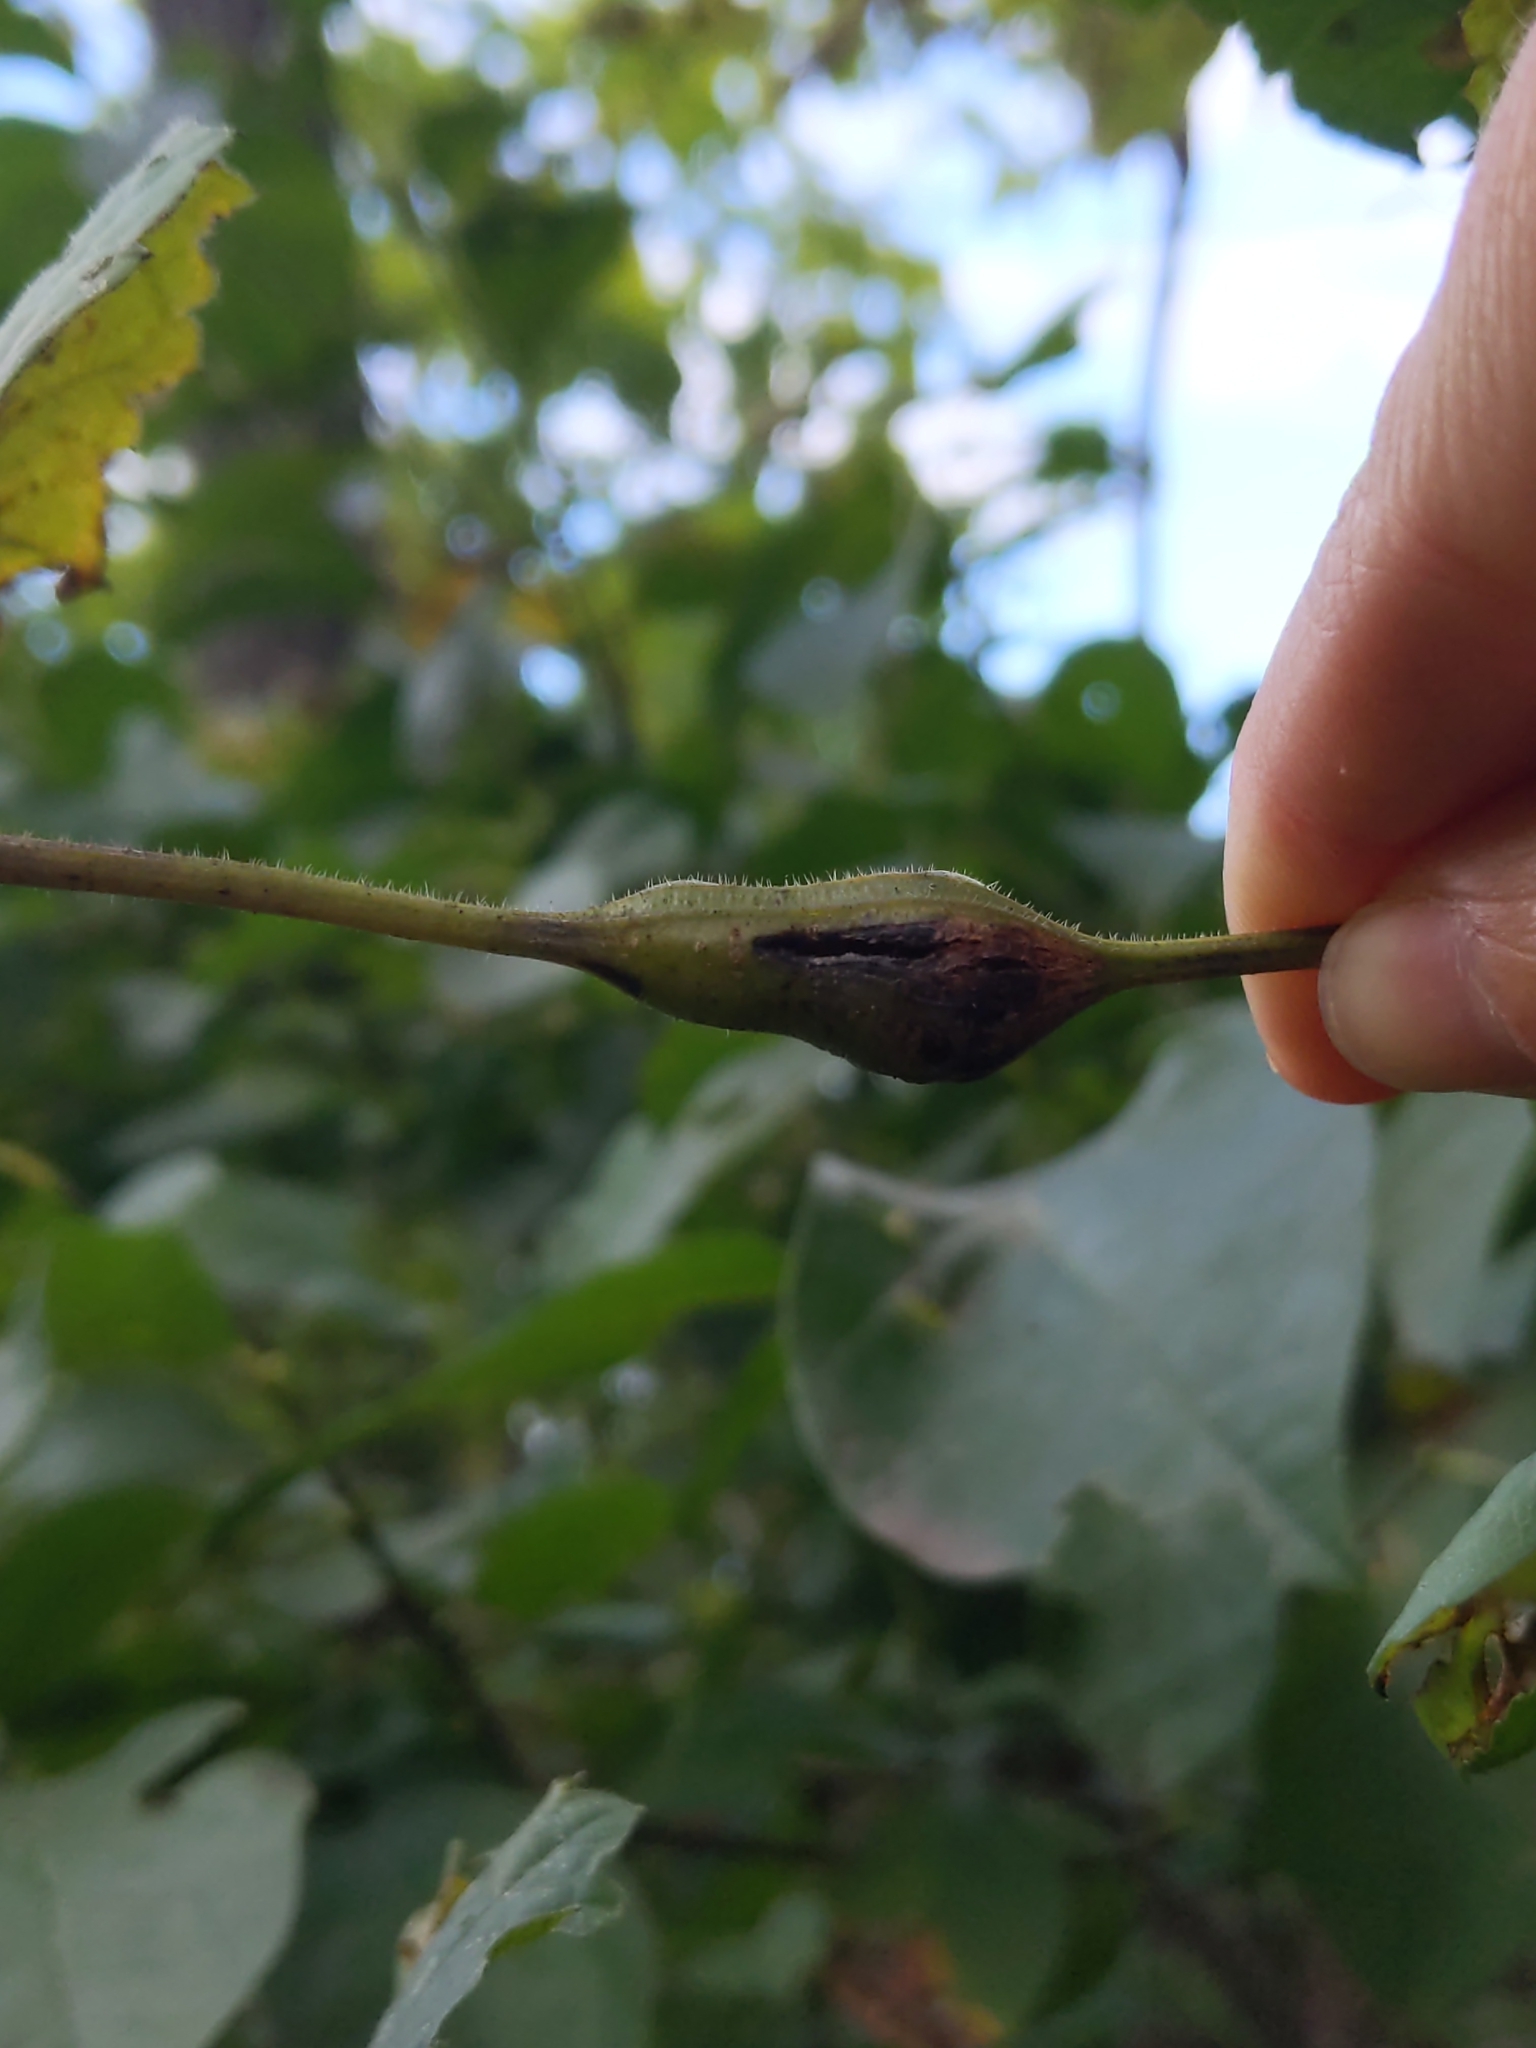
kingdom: Animalia
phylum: Arthropoda
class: Insecta
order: Diptera
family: Cecidomyiidae
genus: Neolasioptera
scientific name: Neolasioptera vitinea
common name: Grape leaf petiole gall
